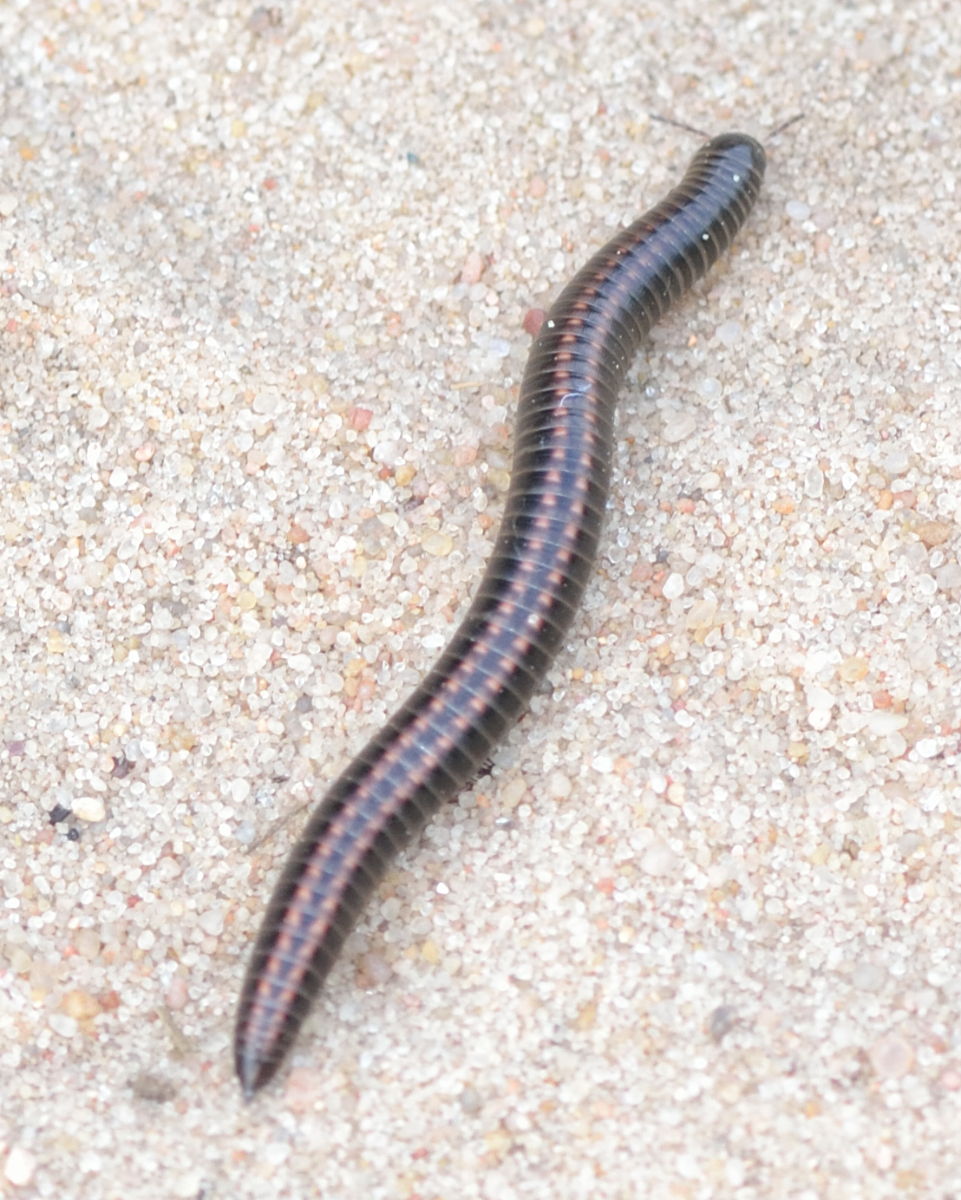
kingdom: Animalia
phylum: Arthropoda
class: Diplopoda
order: Julida
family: Julidae
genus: Ommatoiulus
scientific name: Ommatoiulus sabulosus
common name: Striped millipede
